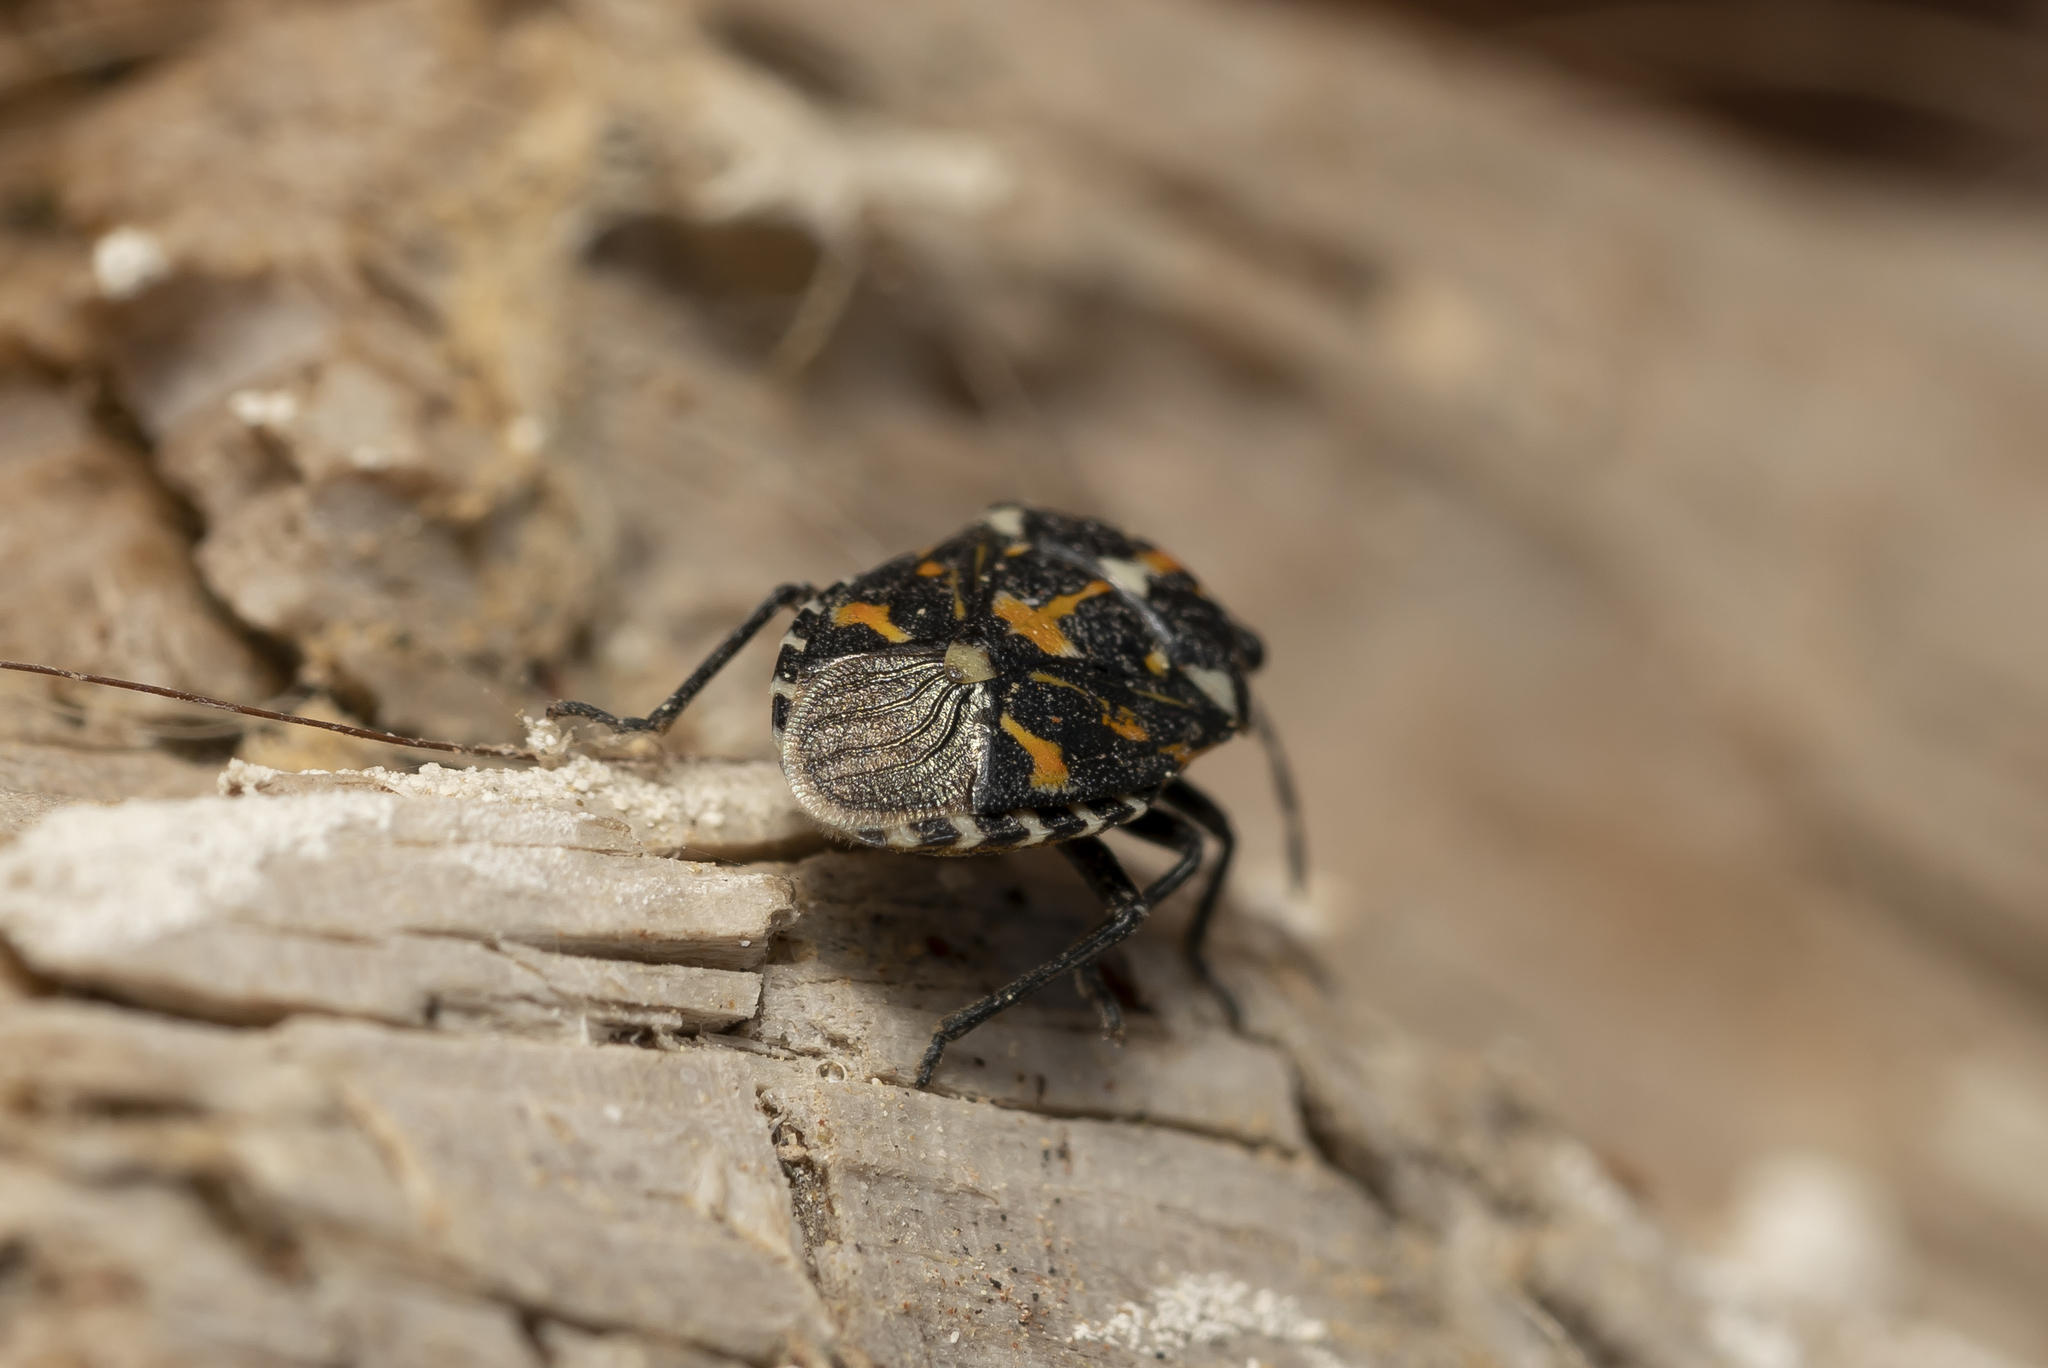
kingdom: Animalia
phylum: Arthropoda
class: Insecta
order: Hemiptera
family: Pentatomidae
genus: Stenozygum
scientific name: Stenozygum coloratum
